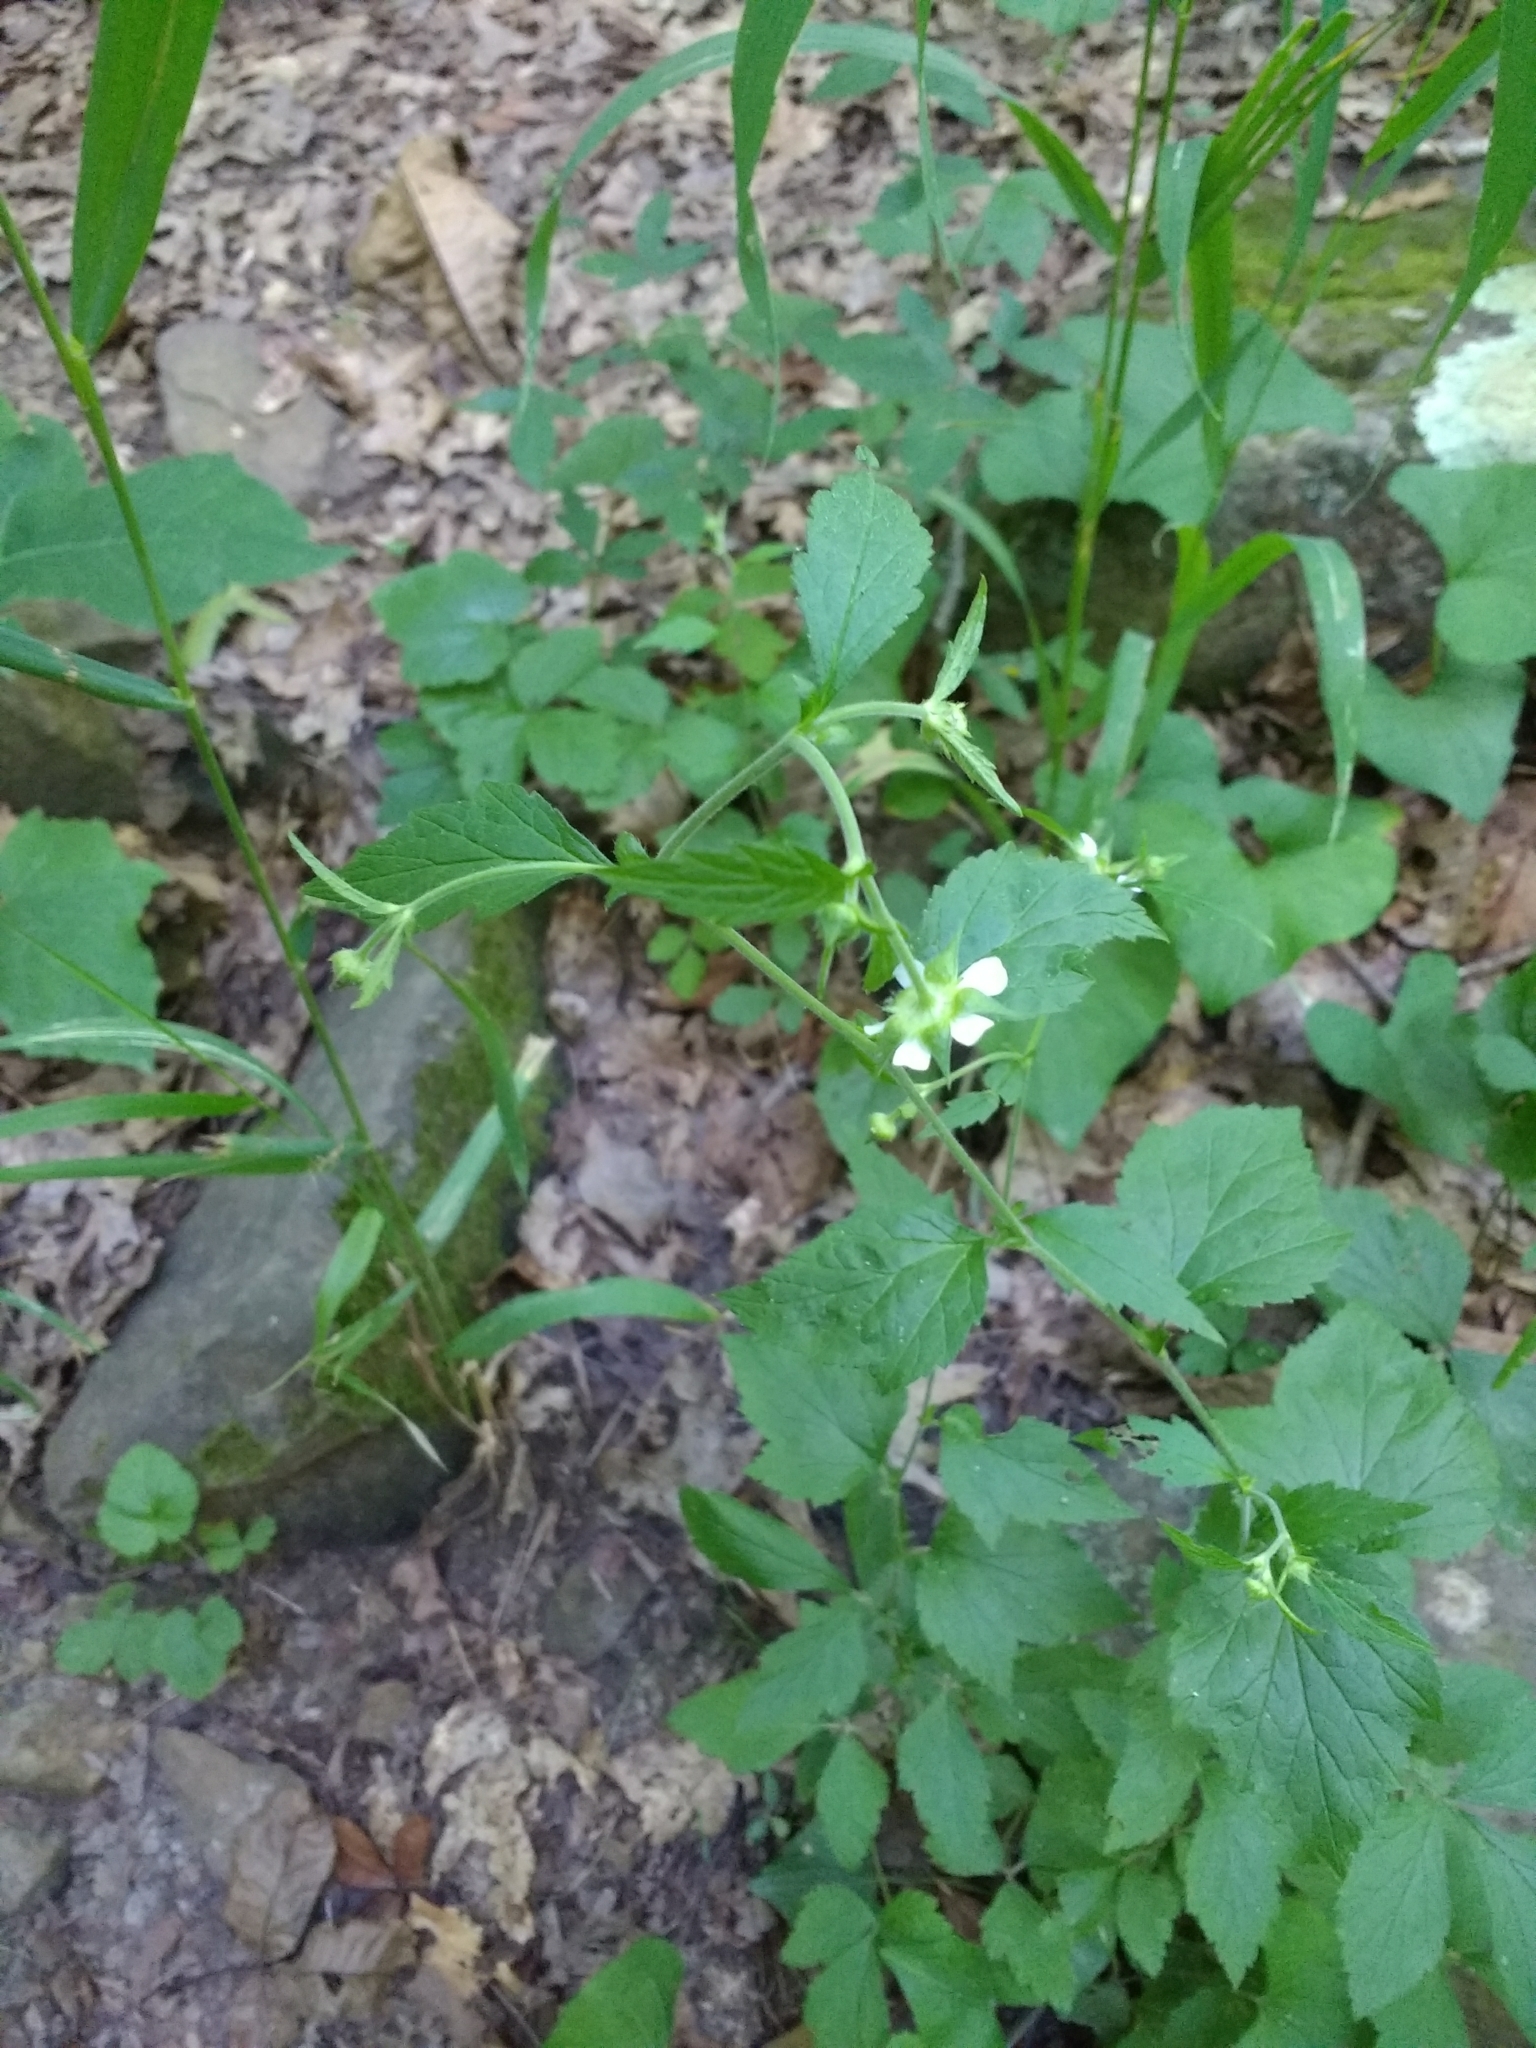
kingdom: Plantae
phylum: Tracheophyta
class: Magnoliopsida
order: Rosales
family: Rosaceae
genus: Geum
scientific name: Geum canadense
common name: White avens
